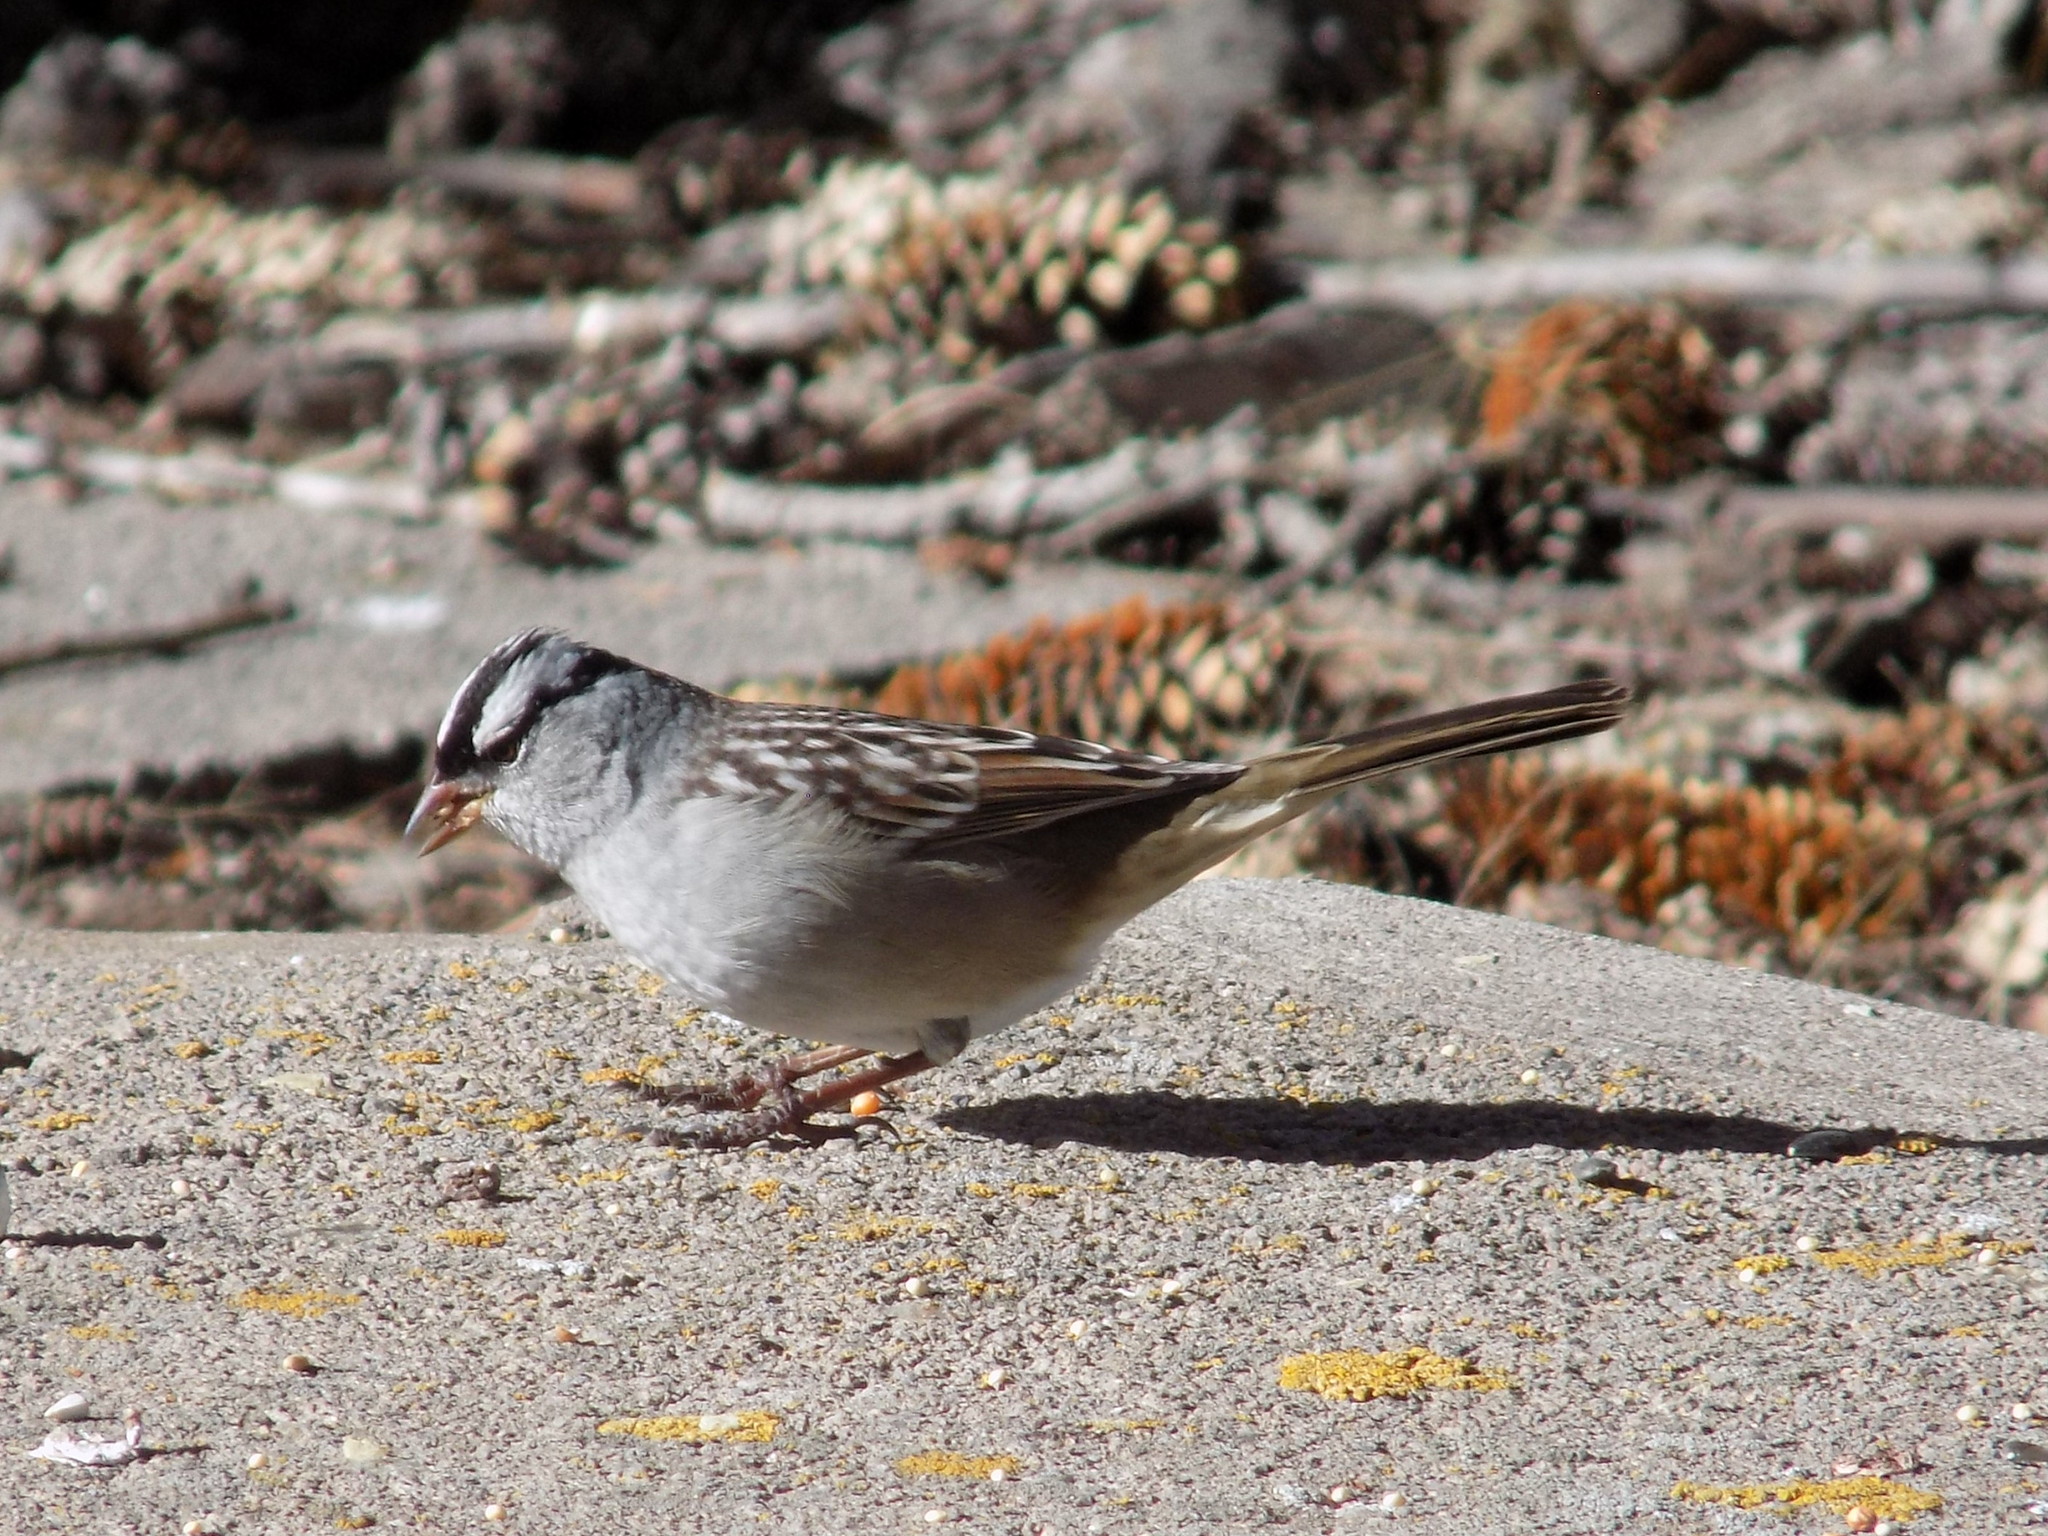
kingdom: Animalia
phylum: Chordata
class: Aves
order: Passeriformes
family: Passerellidae
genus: Zonotrichia
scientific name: Zonotrichia leucophrys
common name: White-crowned sparrow
